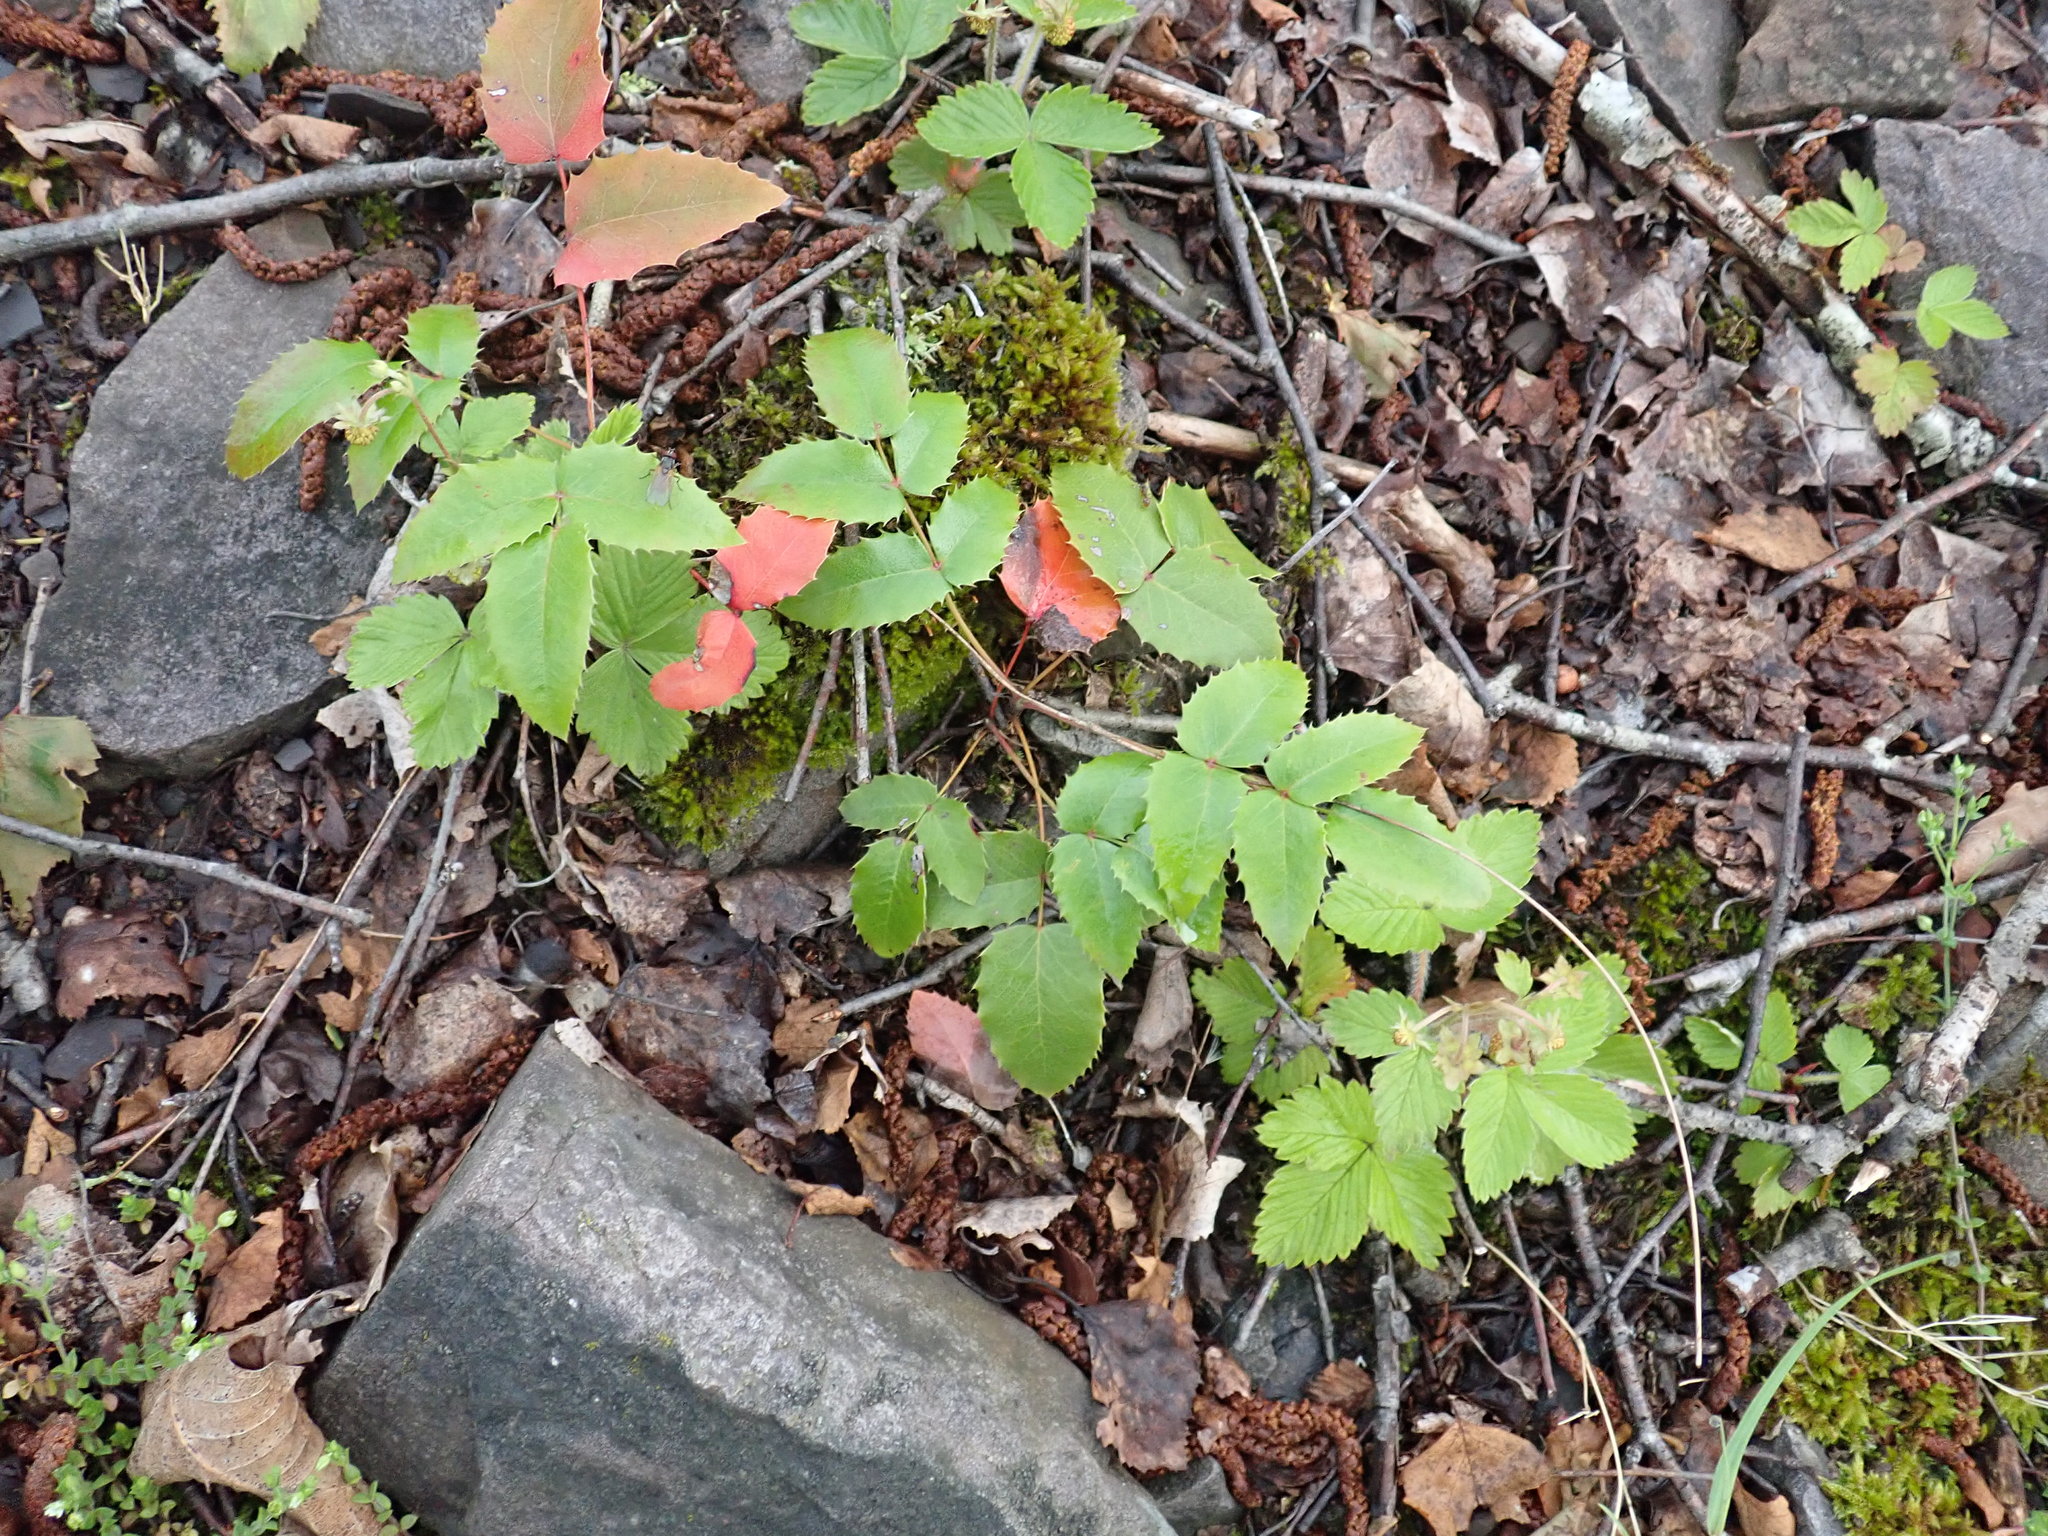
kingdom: Plantae
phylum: Tracheophyta
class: Magnoliopsida
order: Ranunculales
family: Berberidaceae
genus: Mahonia
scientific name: Mahonia aquifolium
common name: Oregon-grape
